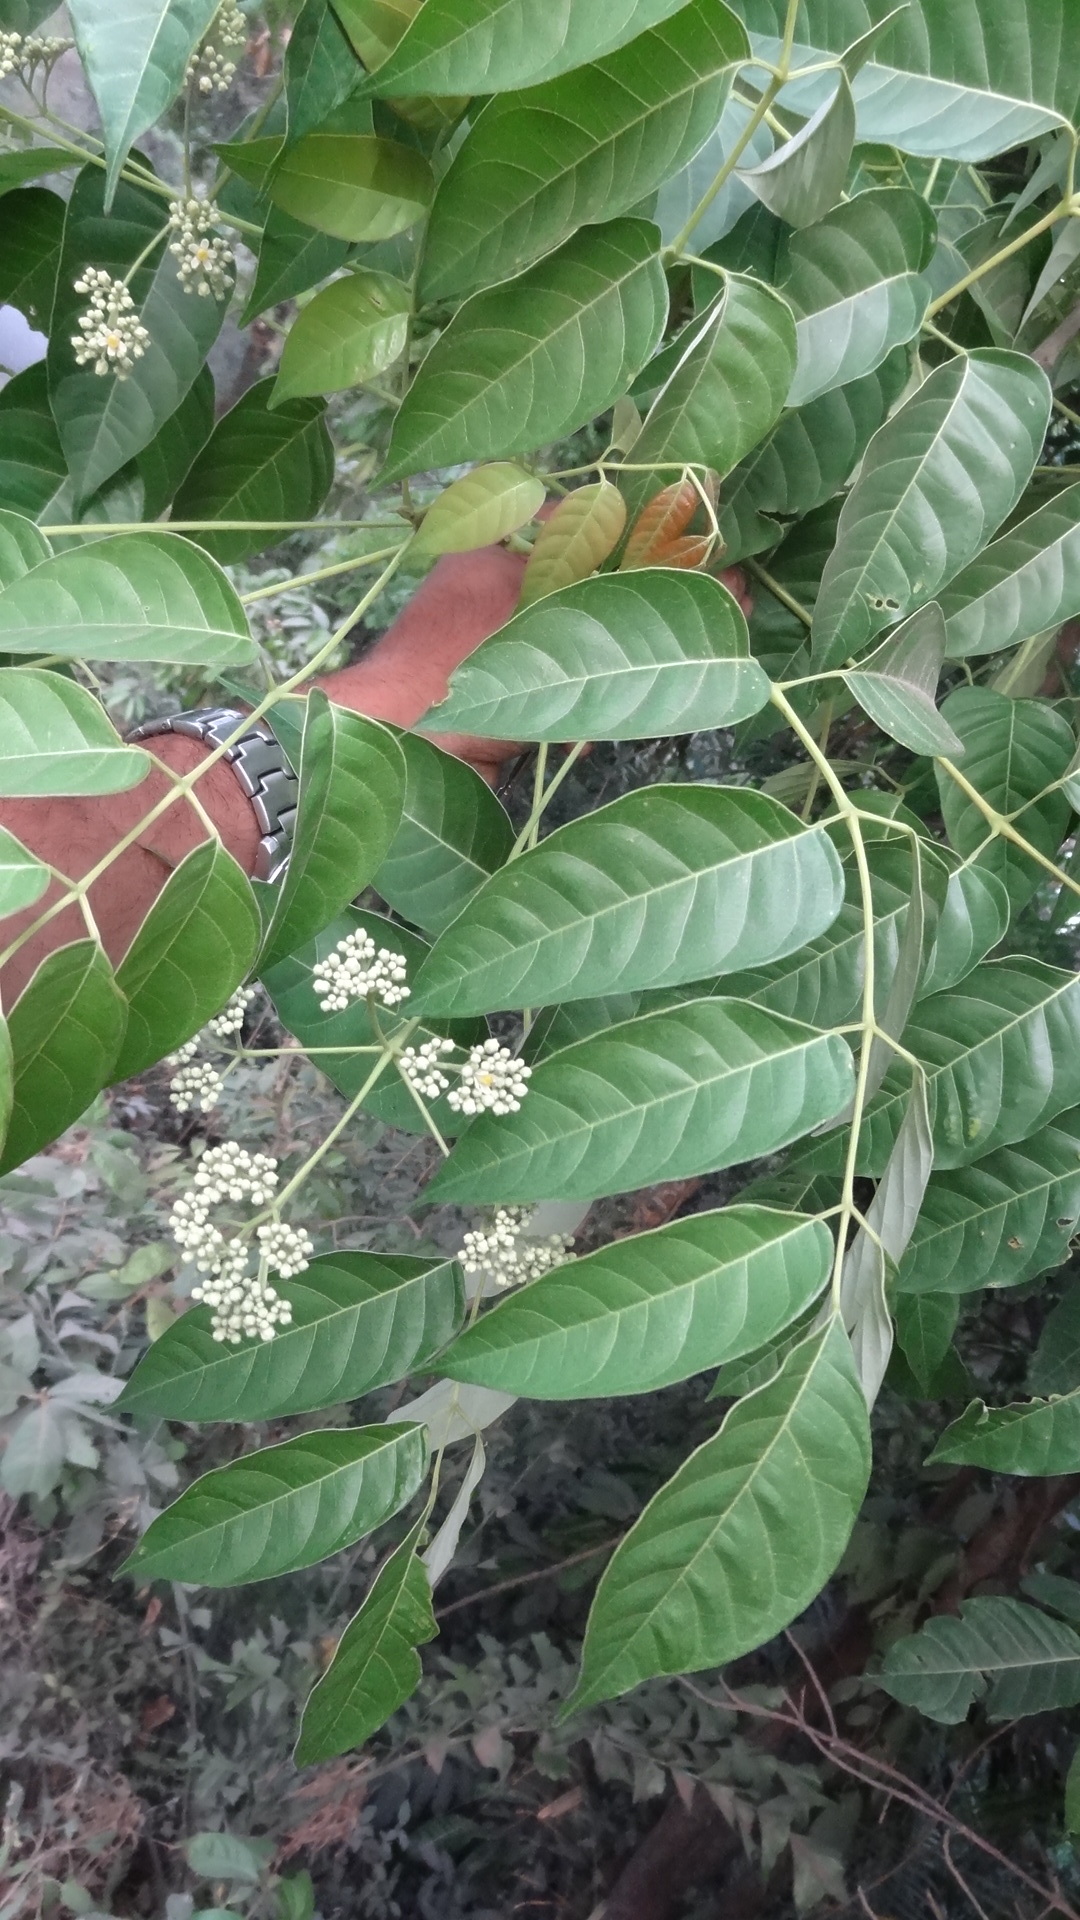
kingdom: Plantae
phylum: Tracheophyta
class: Magnoliopsida
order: Sapindales
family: Meliaceae
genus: Heynea
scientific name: Heynea trijuga
